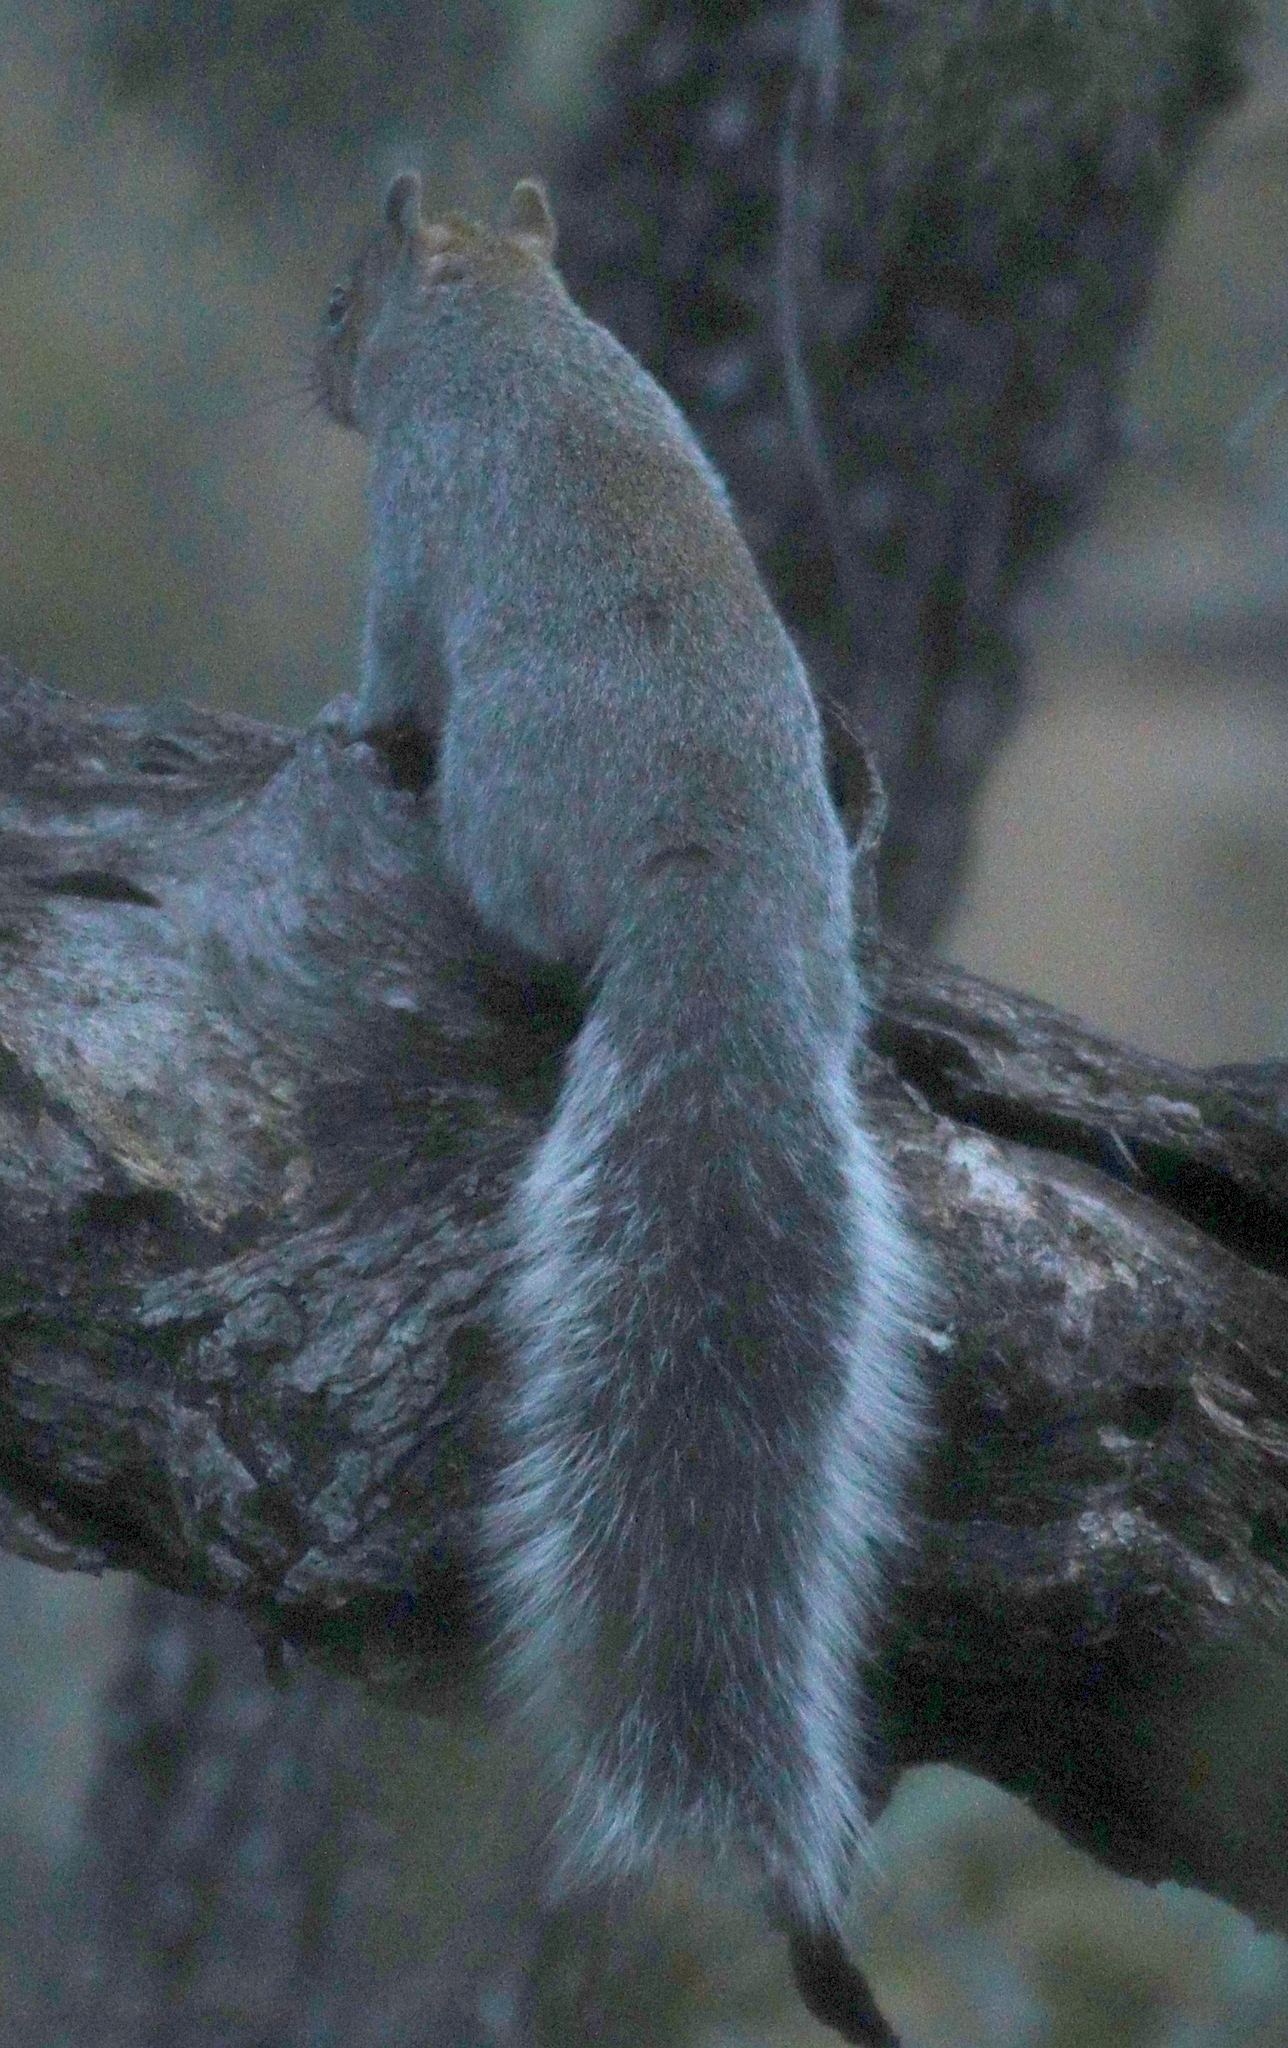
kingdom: Animalia
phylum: Chordata
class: Mammalia
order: Rodentia
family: Sciuridae
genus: Sciurus
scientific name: Sciurus arizonensis
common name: Arizona gray squirrel
